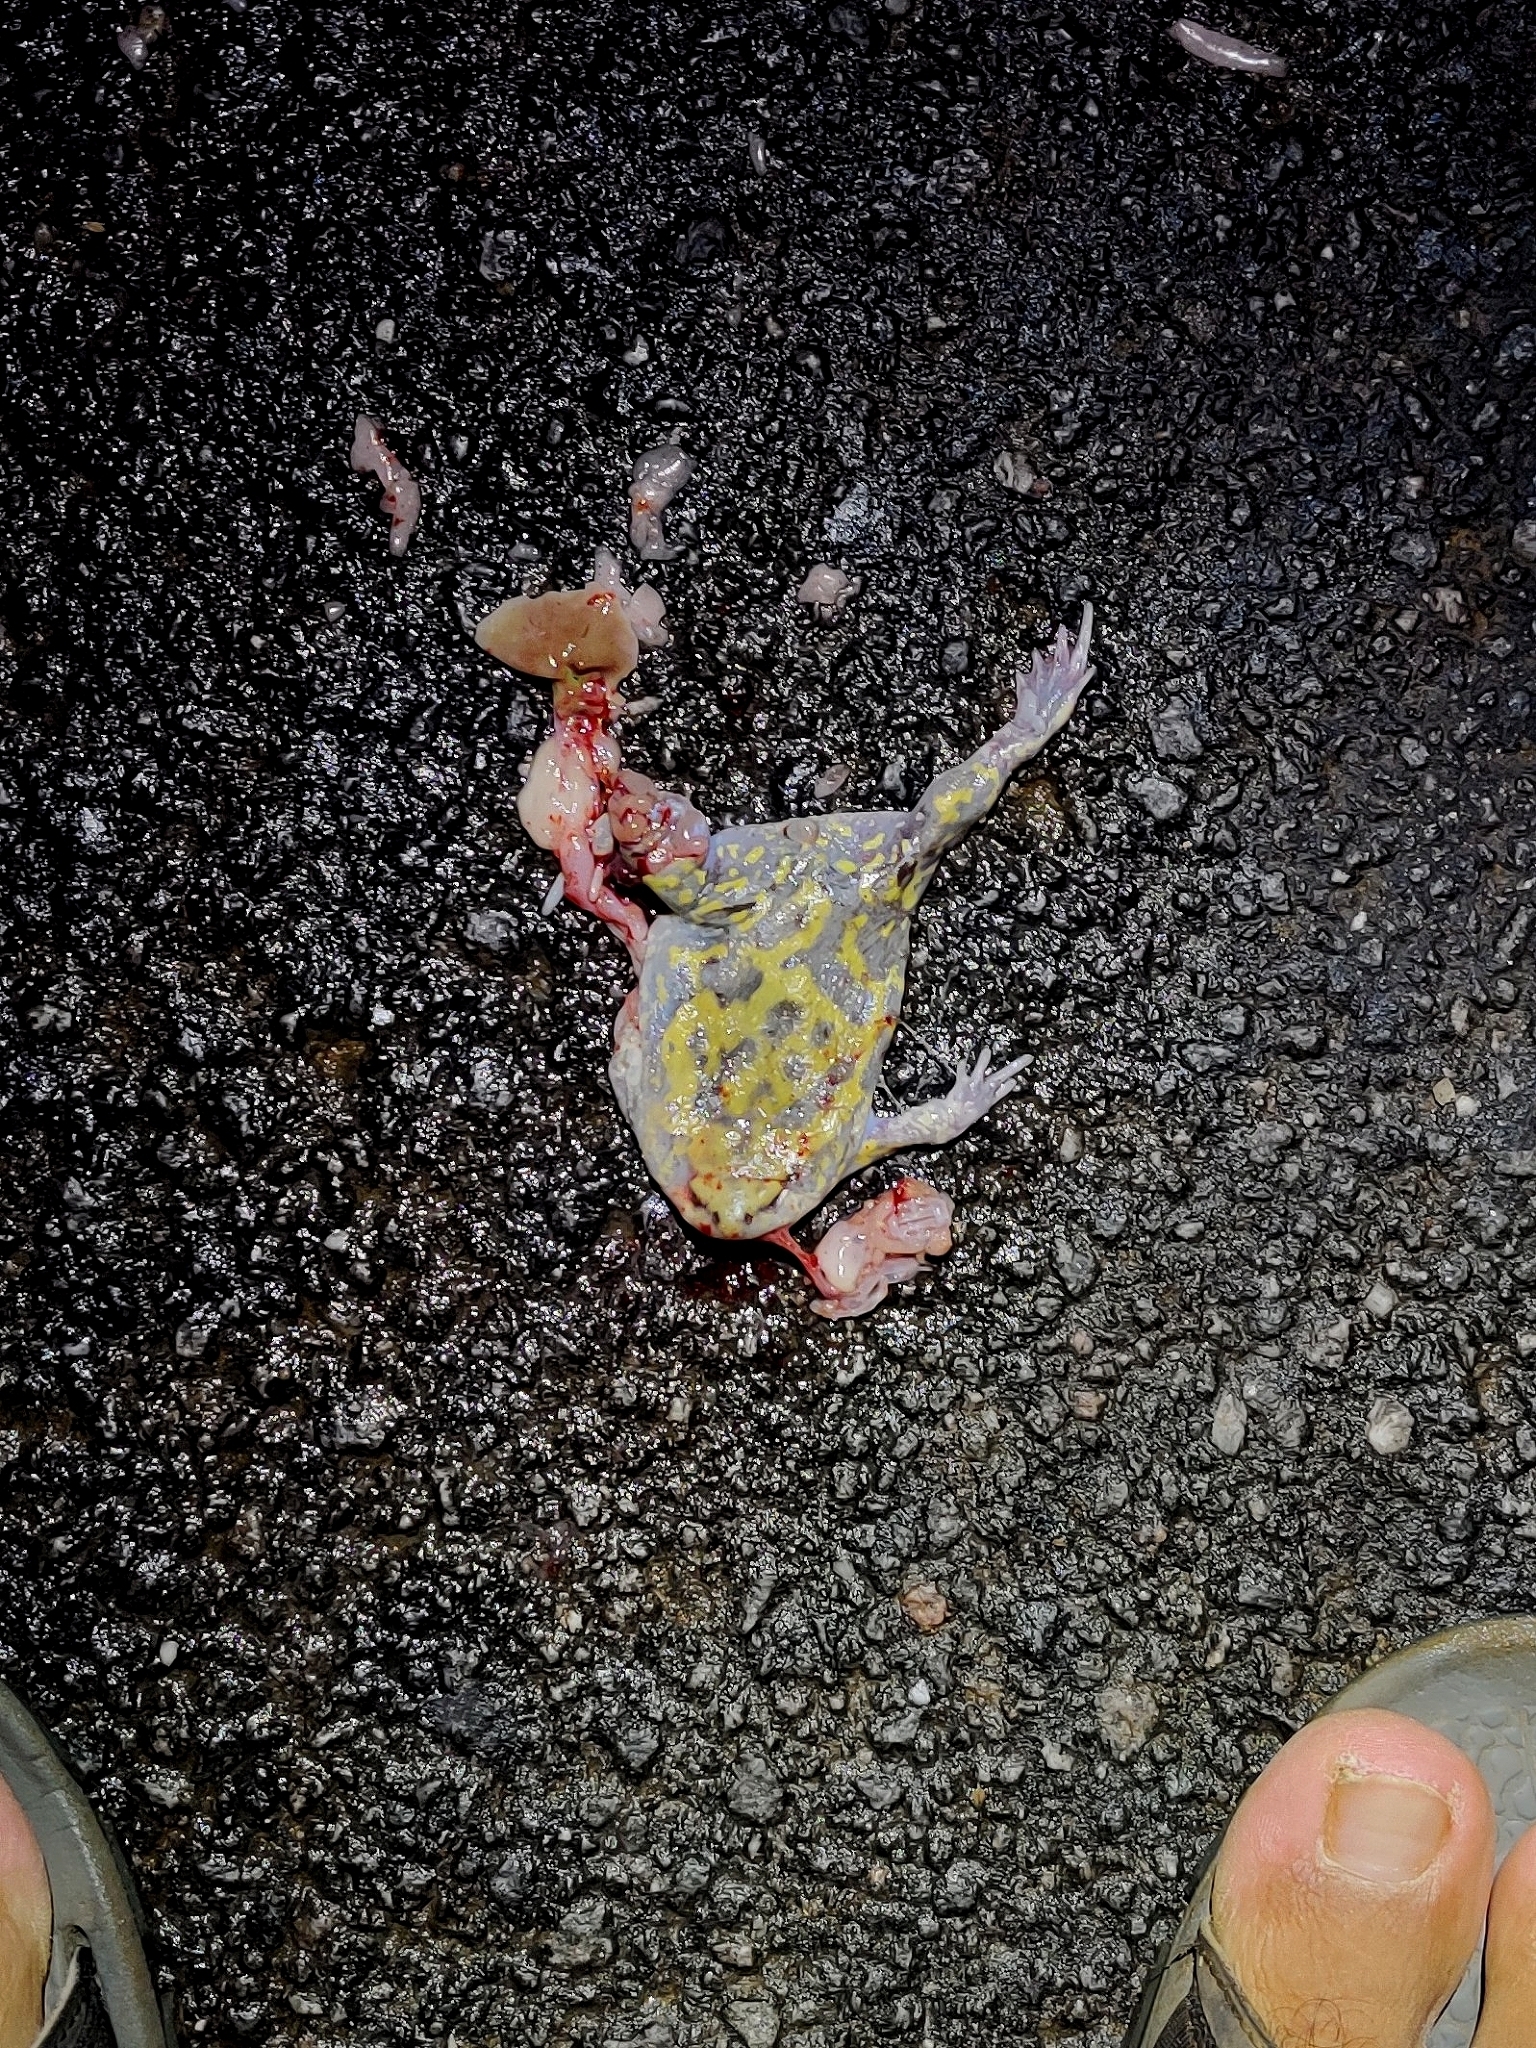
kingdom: Animalia
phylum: Chordata
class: Amphibia
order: Anura
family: Microhylidae
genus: Uperodon
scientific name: Uperodon systoma
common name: Balloon frog
